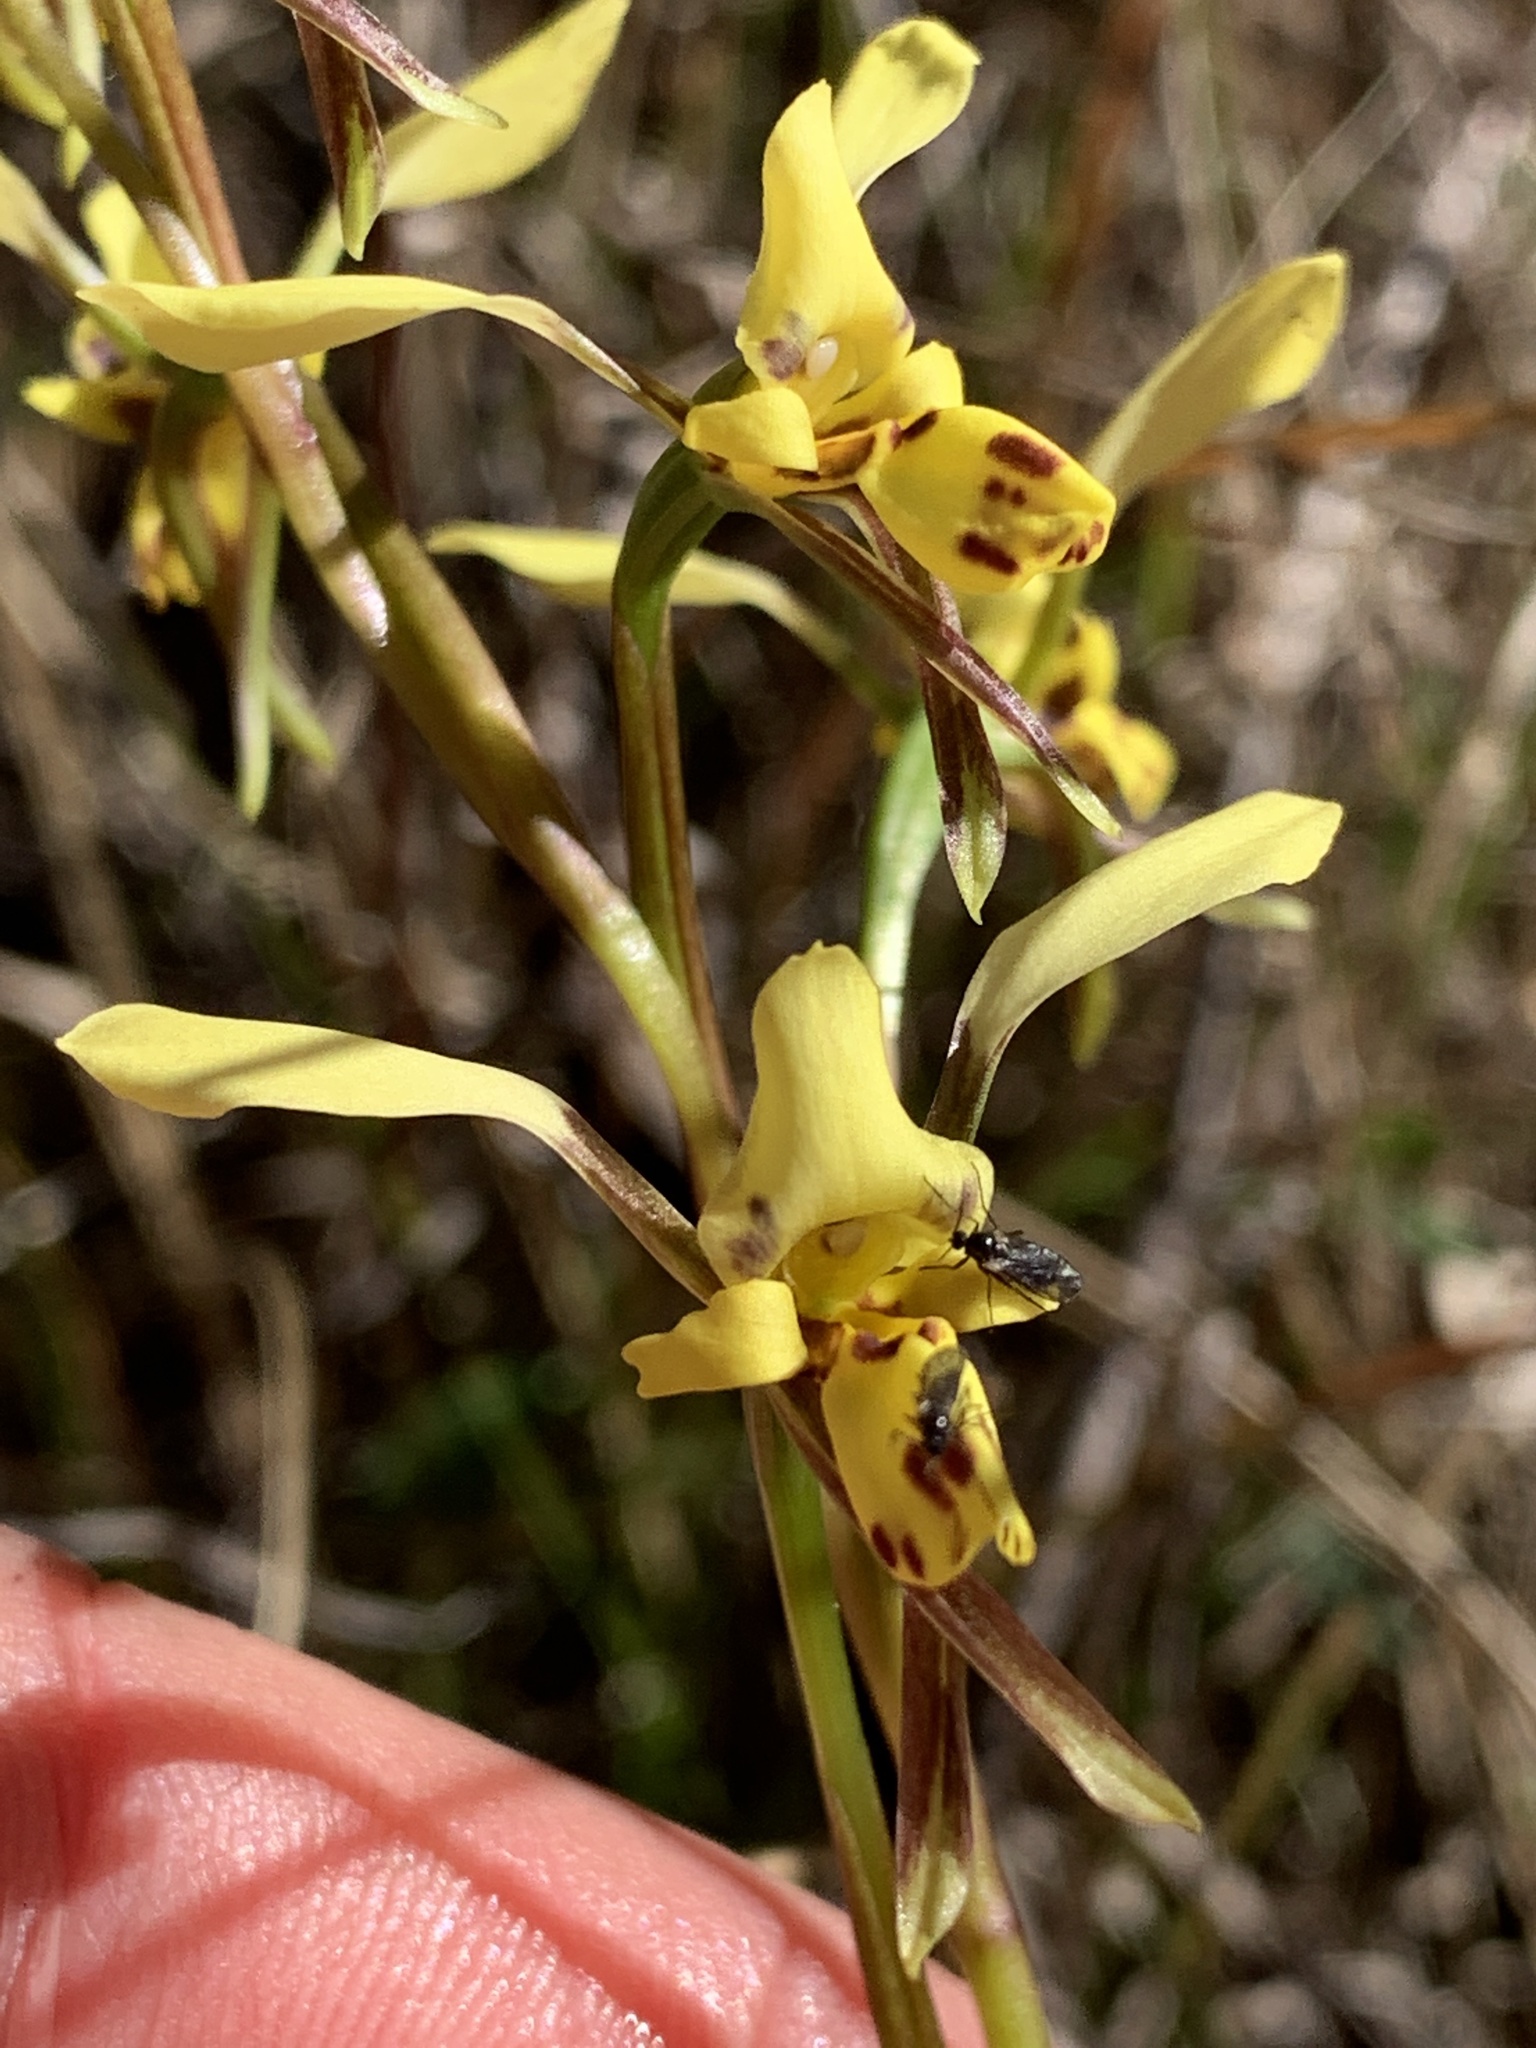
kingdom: Plantae
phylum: Tracheophyta
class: Liliopsida
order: Asparagales
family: Orchidaceae
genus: Diuris
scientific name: Diuris platichila
